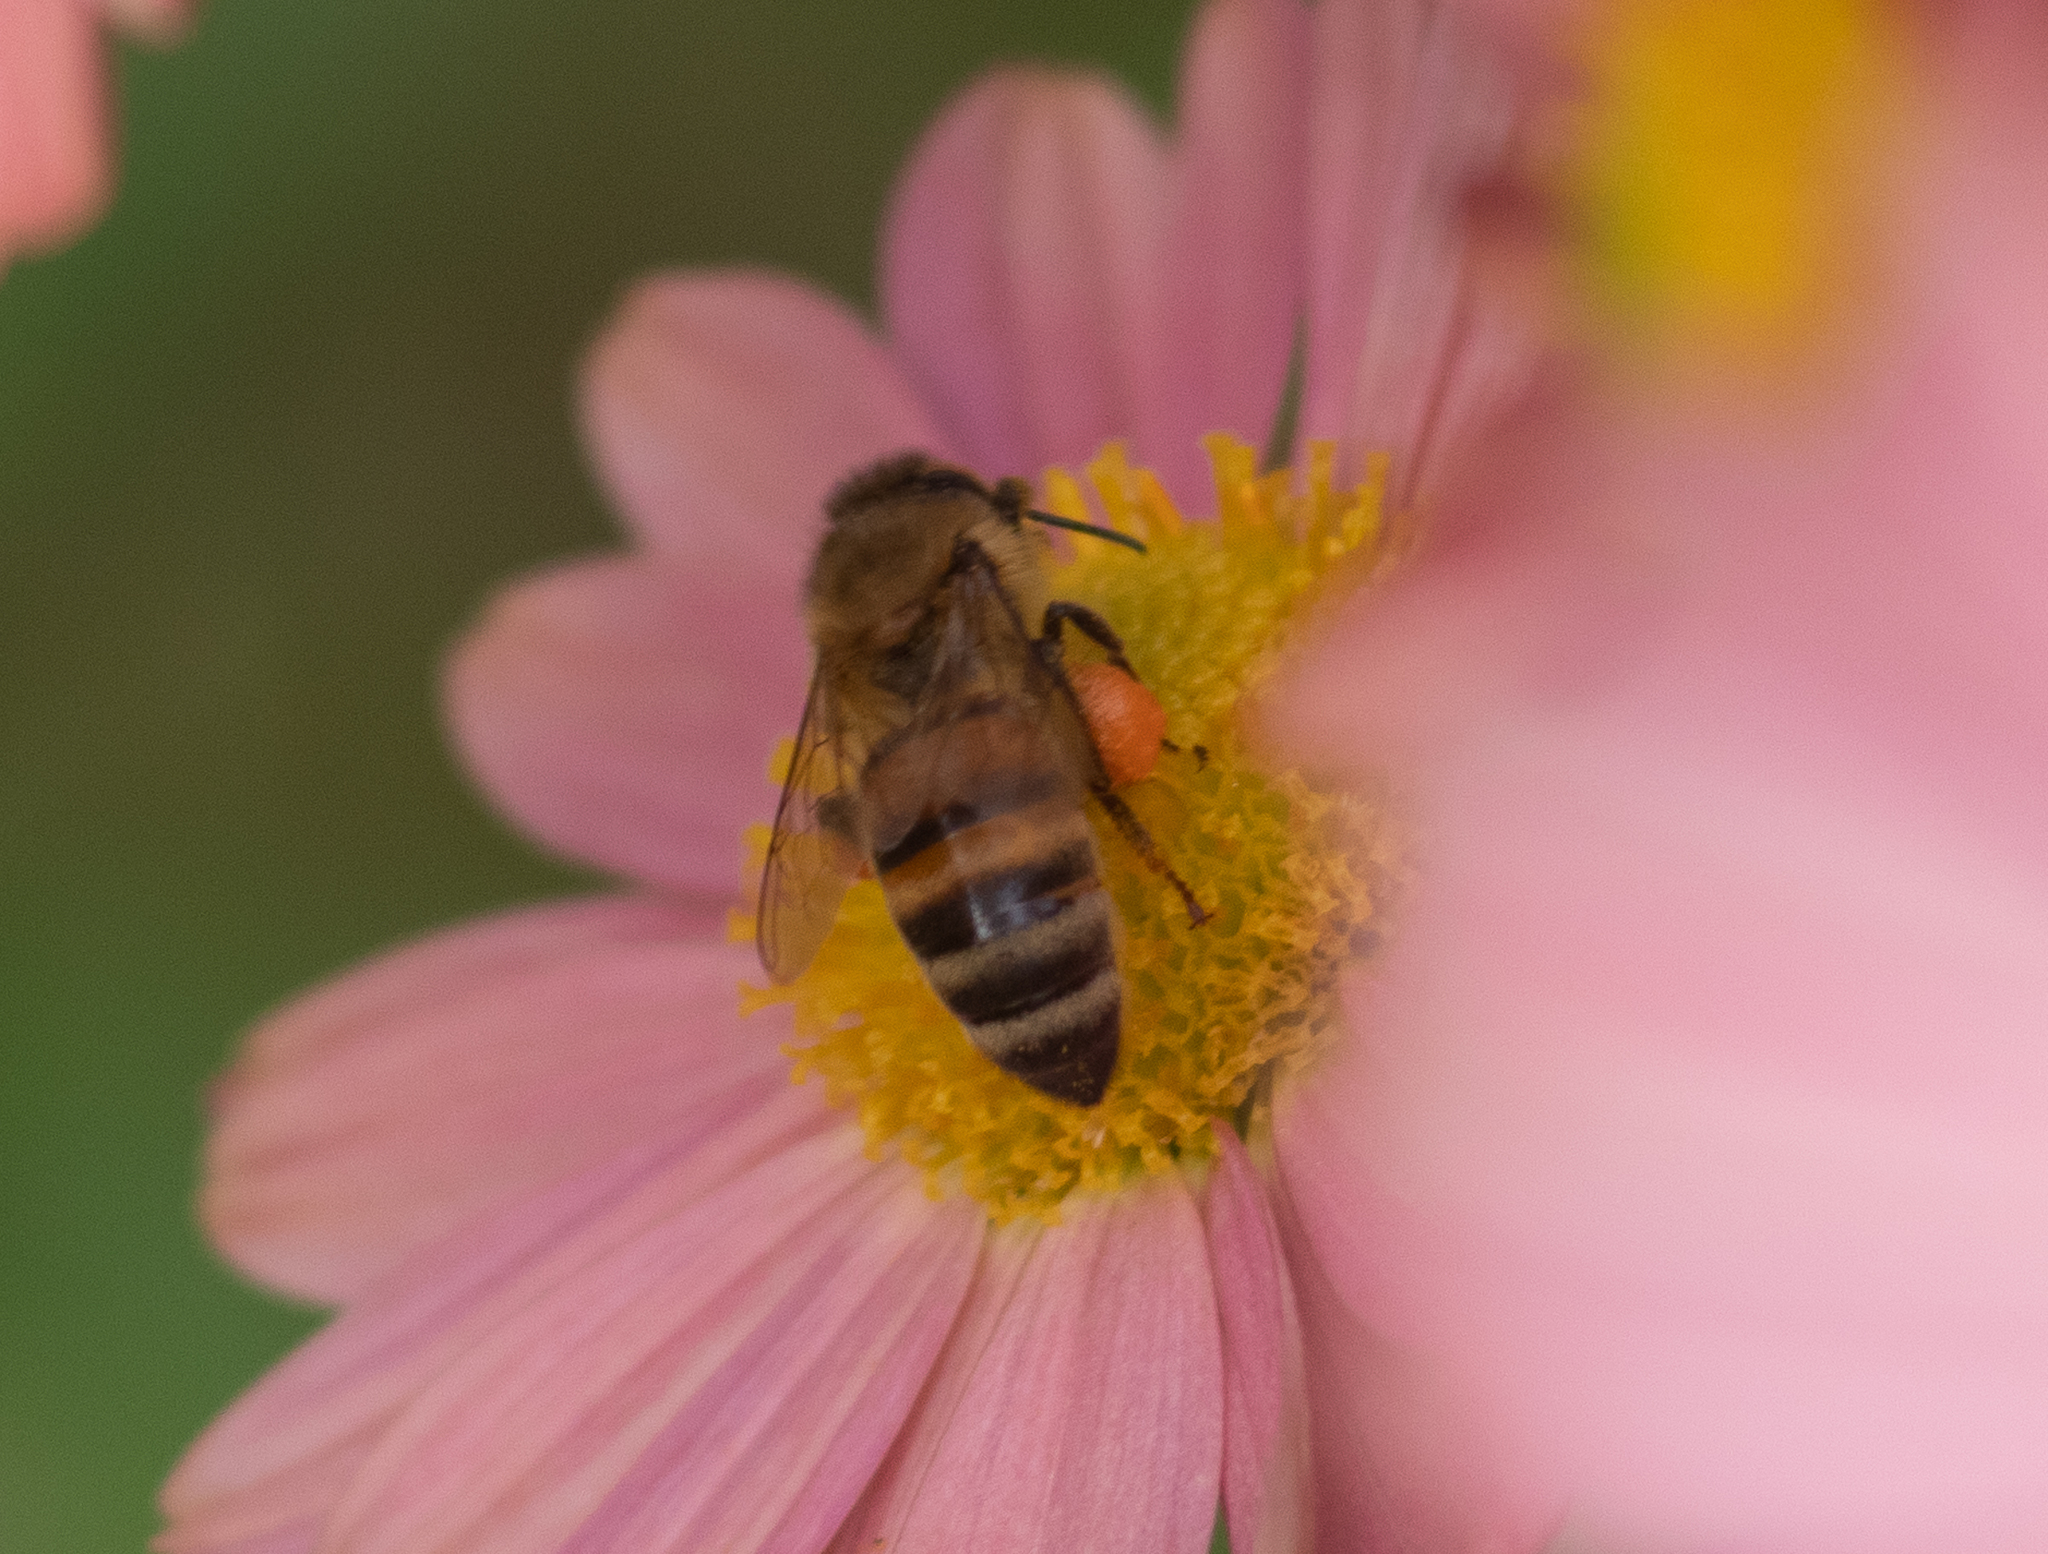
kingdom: Animalia
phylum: Arthropoda
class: Insecta
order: Hymenoptera
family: Apidae
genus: Apis
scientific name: Apis mellifera
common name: Honey bee
